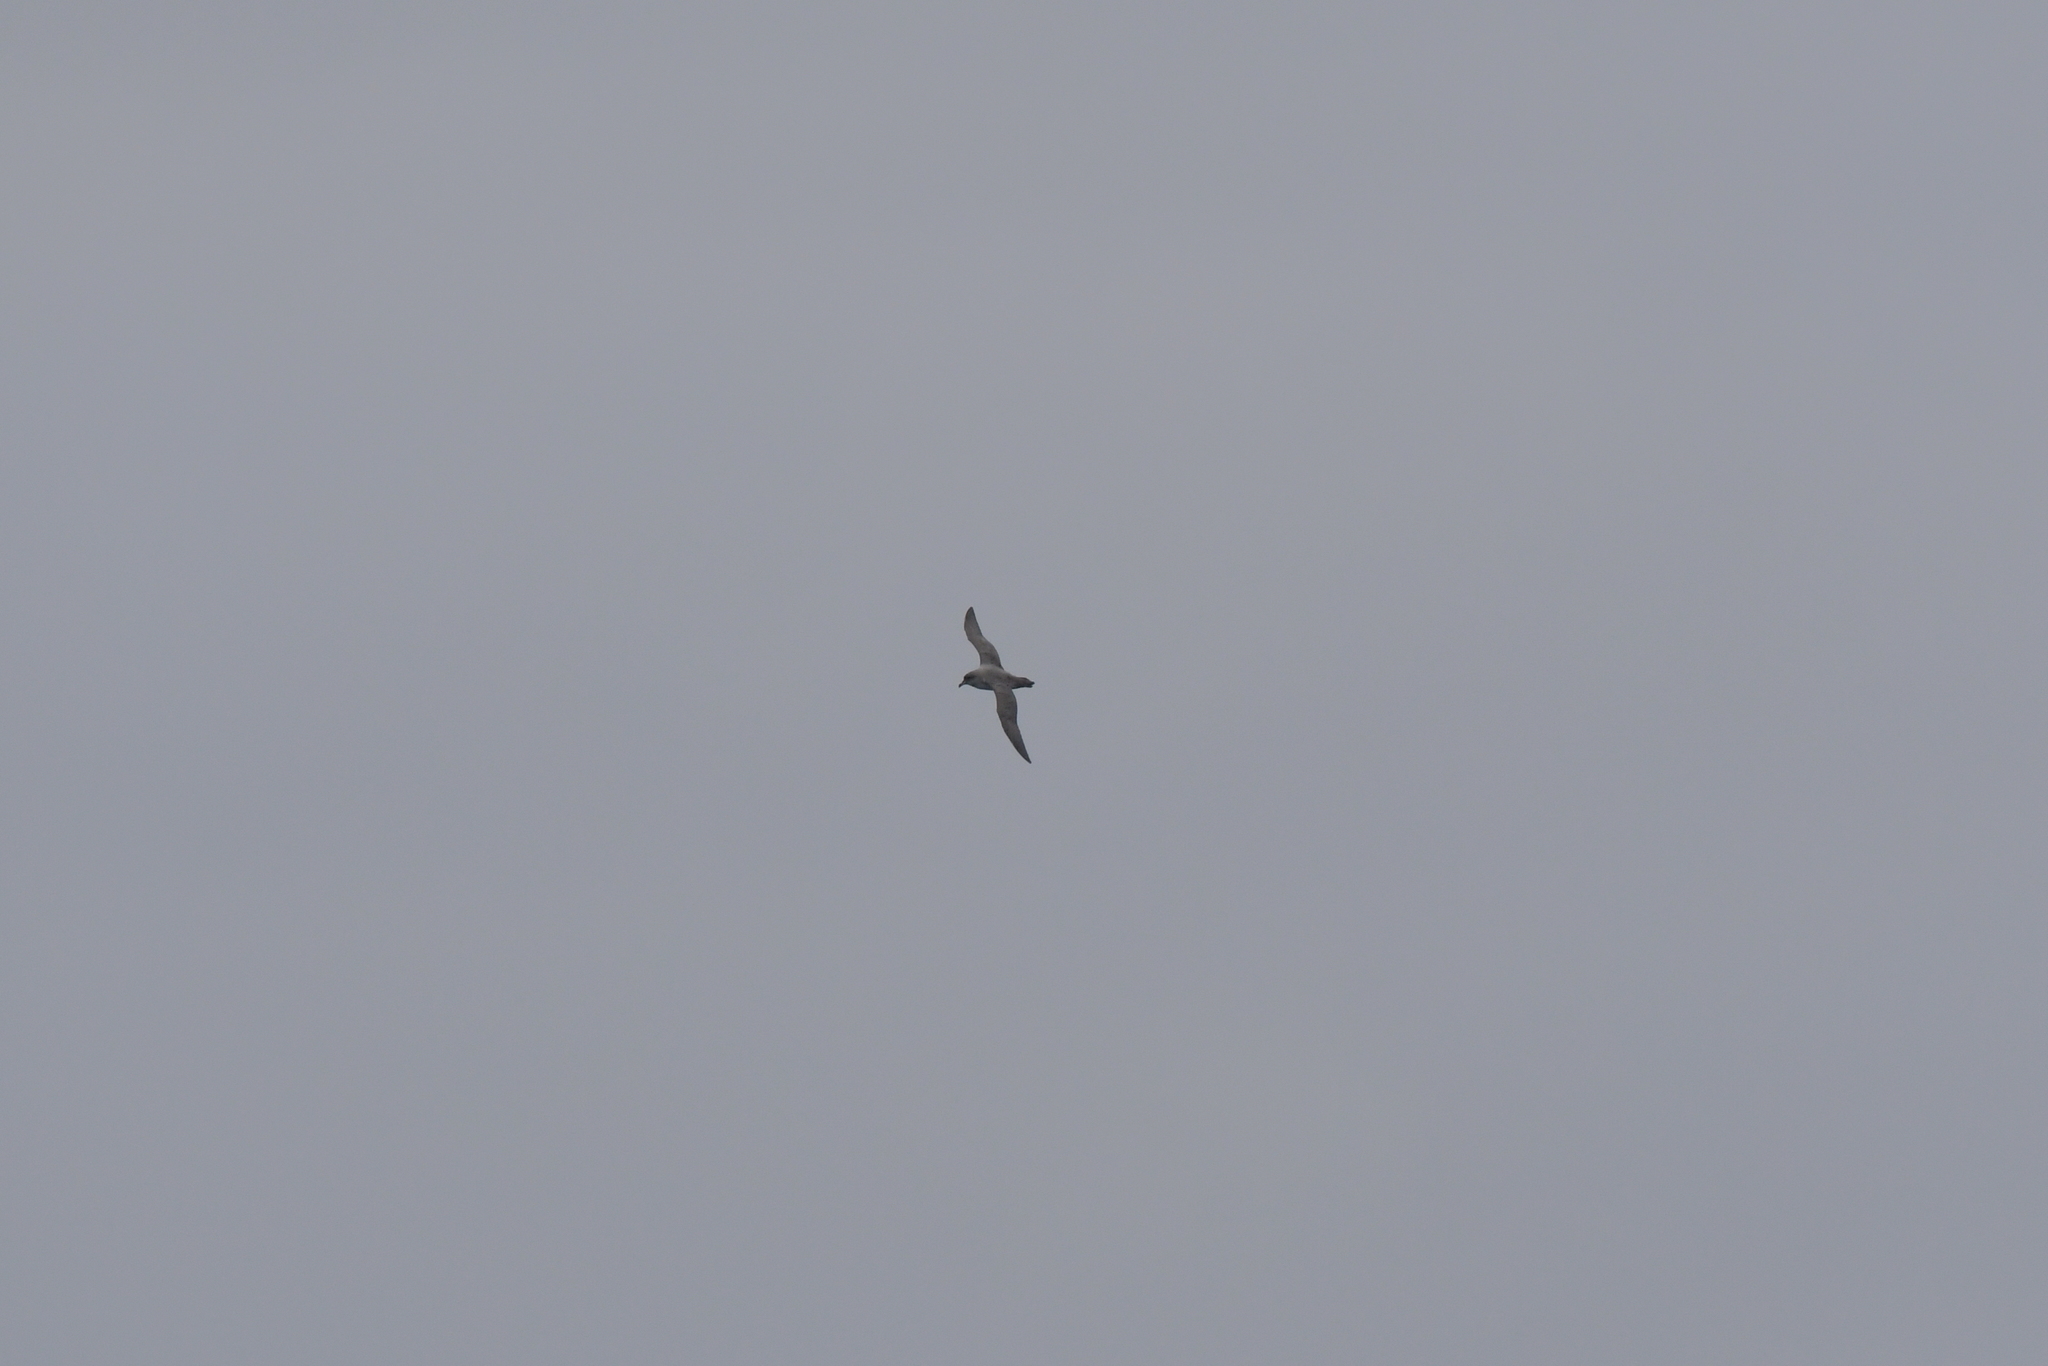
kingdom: Animalia
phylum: Chordata
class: Aves
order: Procellariiformes
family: Procellariidae
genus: Procellaria
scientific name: Procellaria cinerea
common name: Grey petrel
